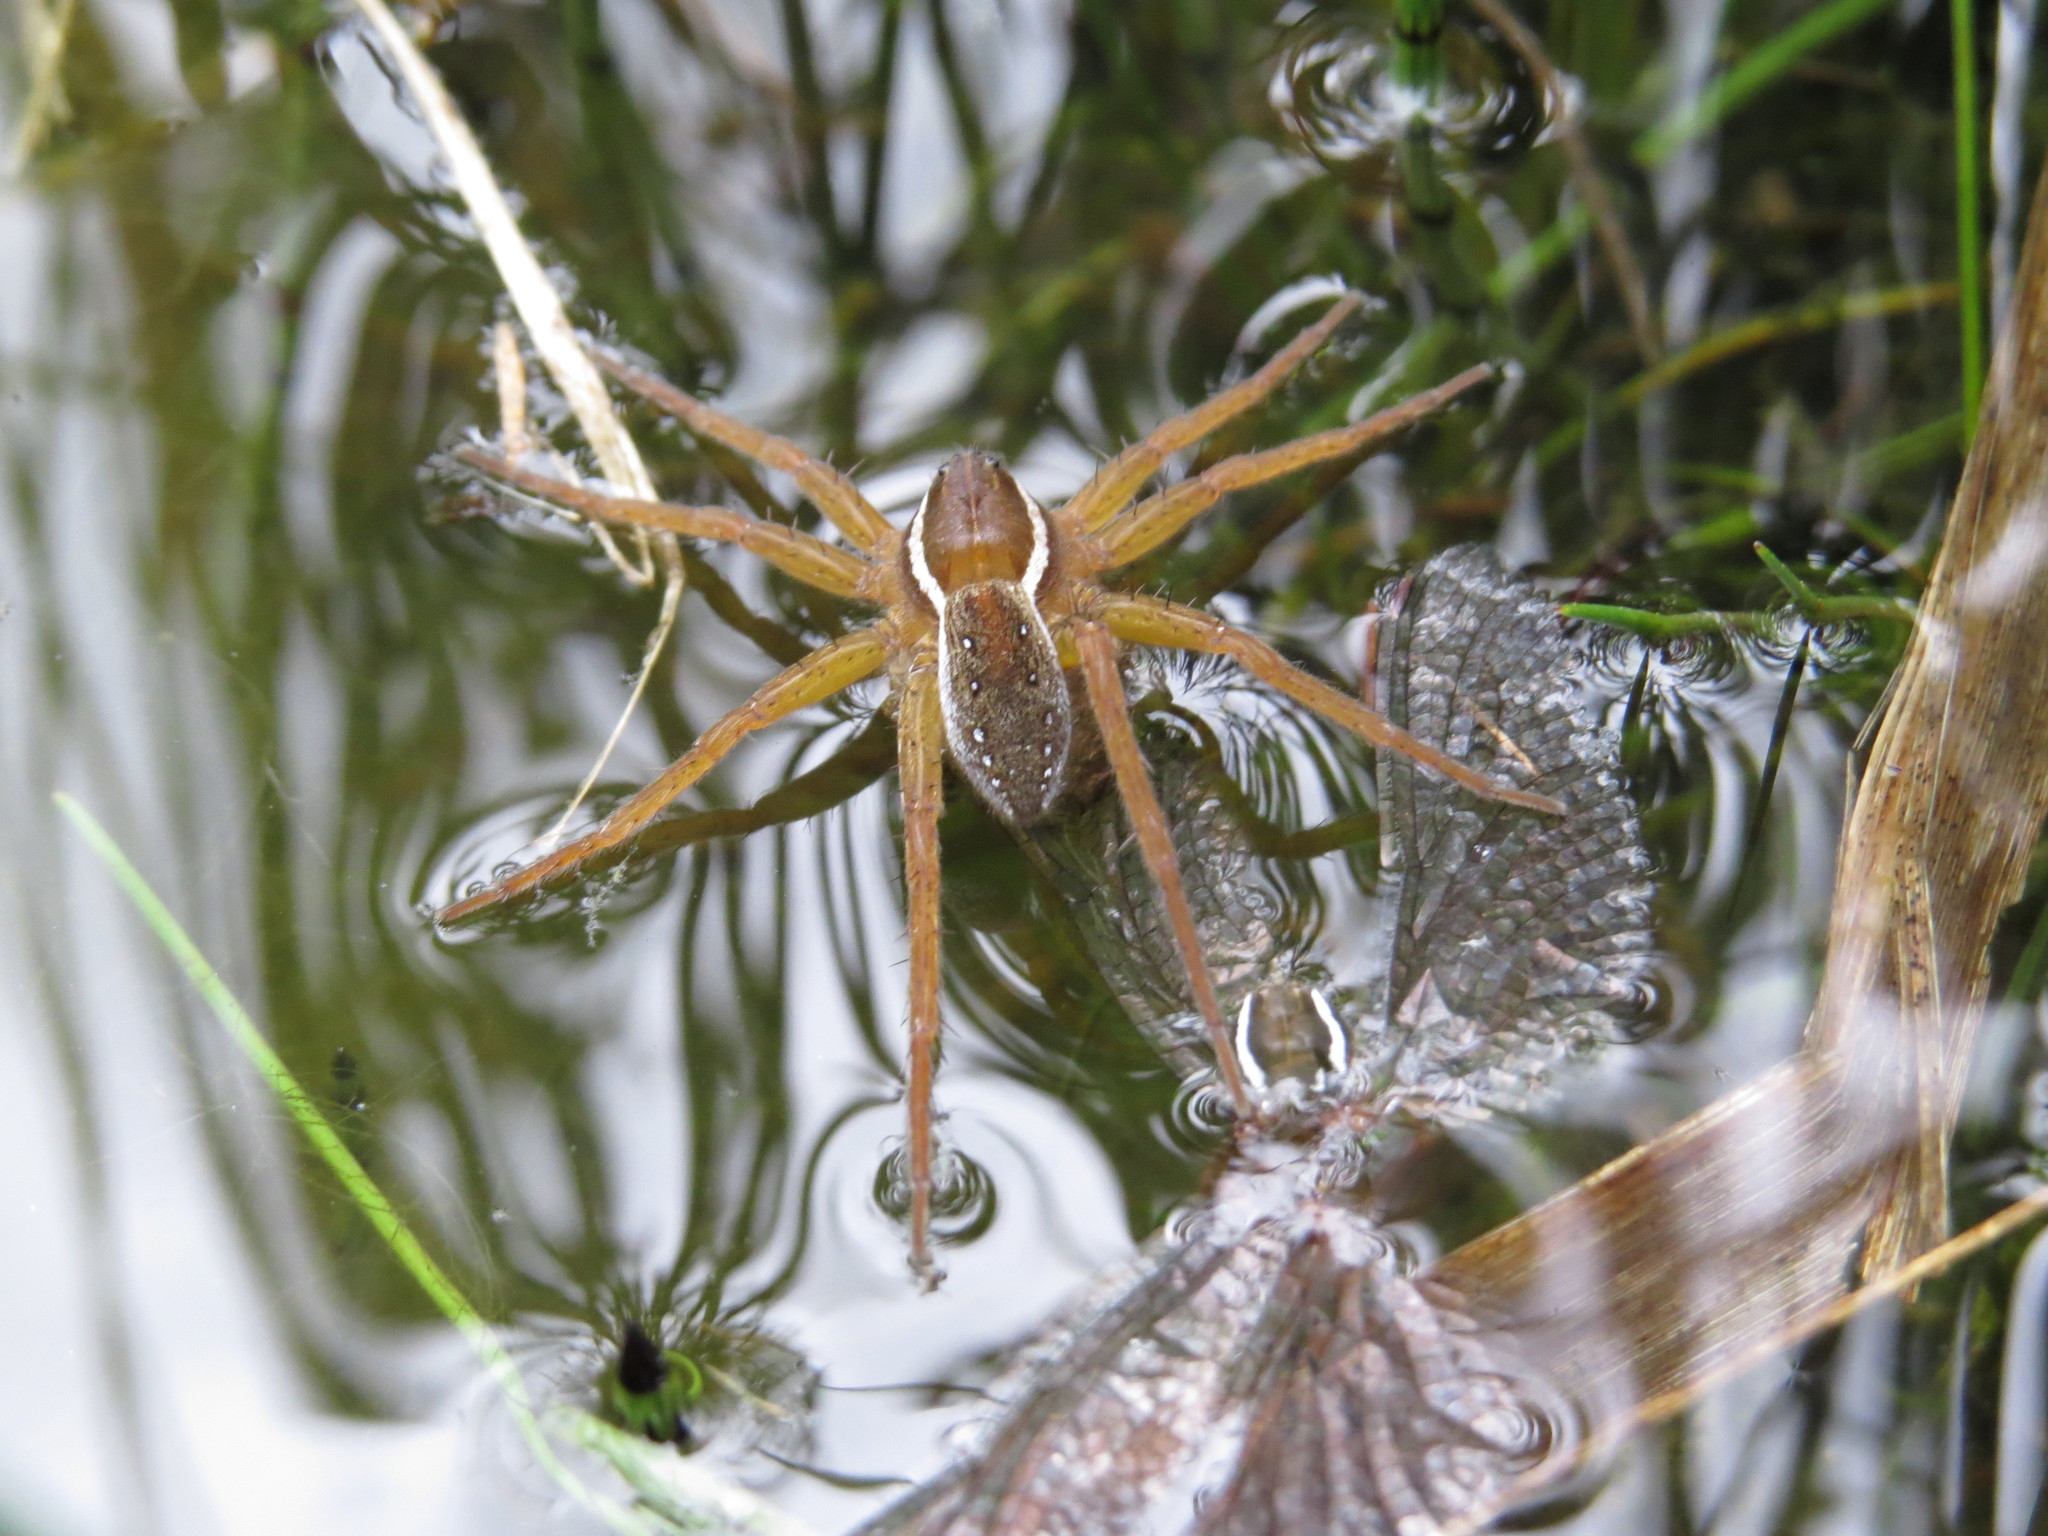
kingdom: Animalia
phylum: Arthropoda
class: Arachnida
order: Araneae
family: Pisauridae
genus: Dolomedes
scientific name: Dolomedes triton
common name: Six-spotted fishing spider
